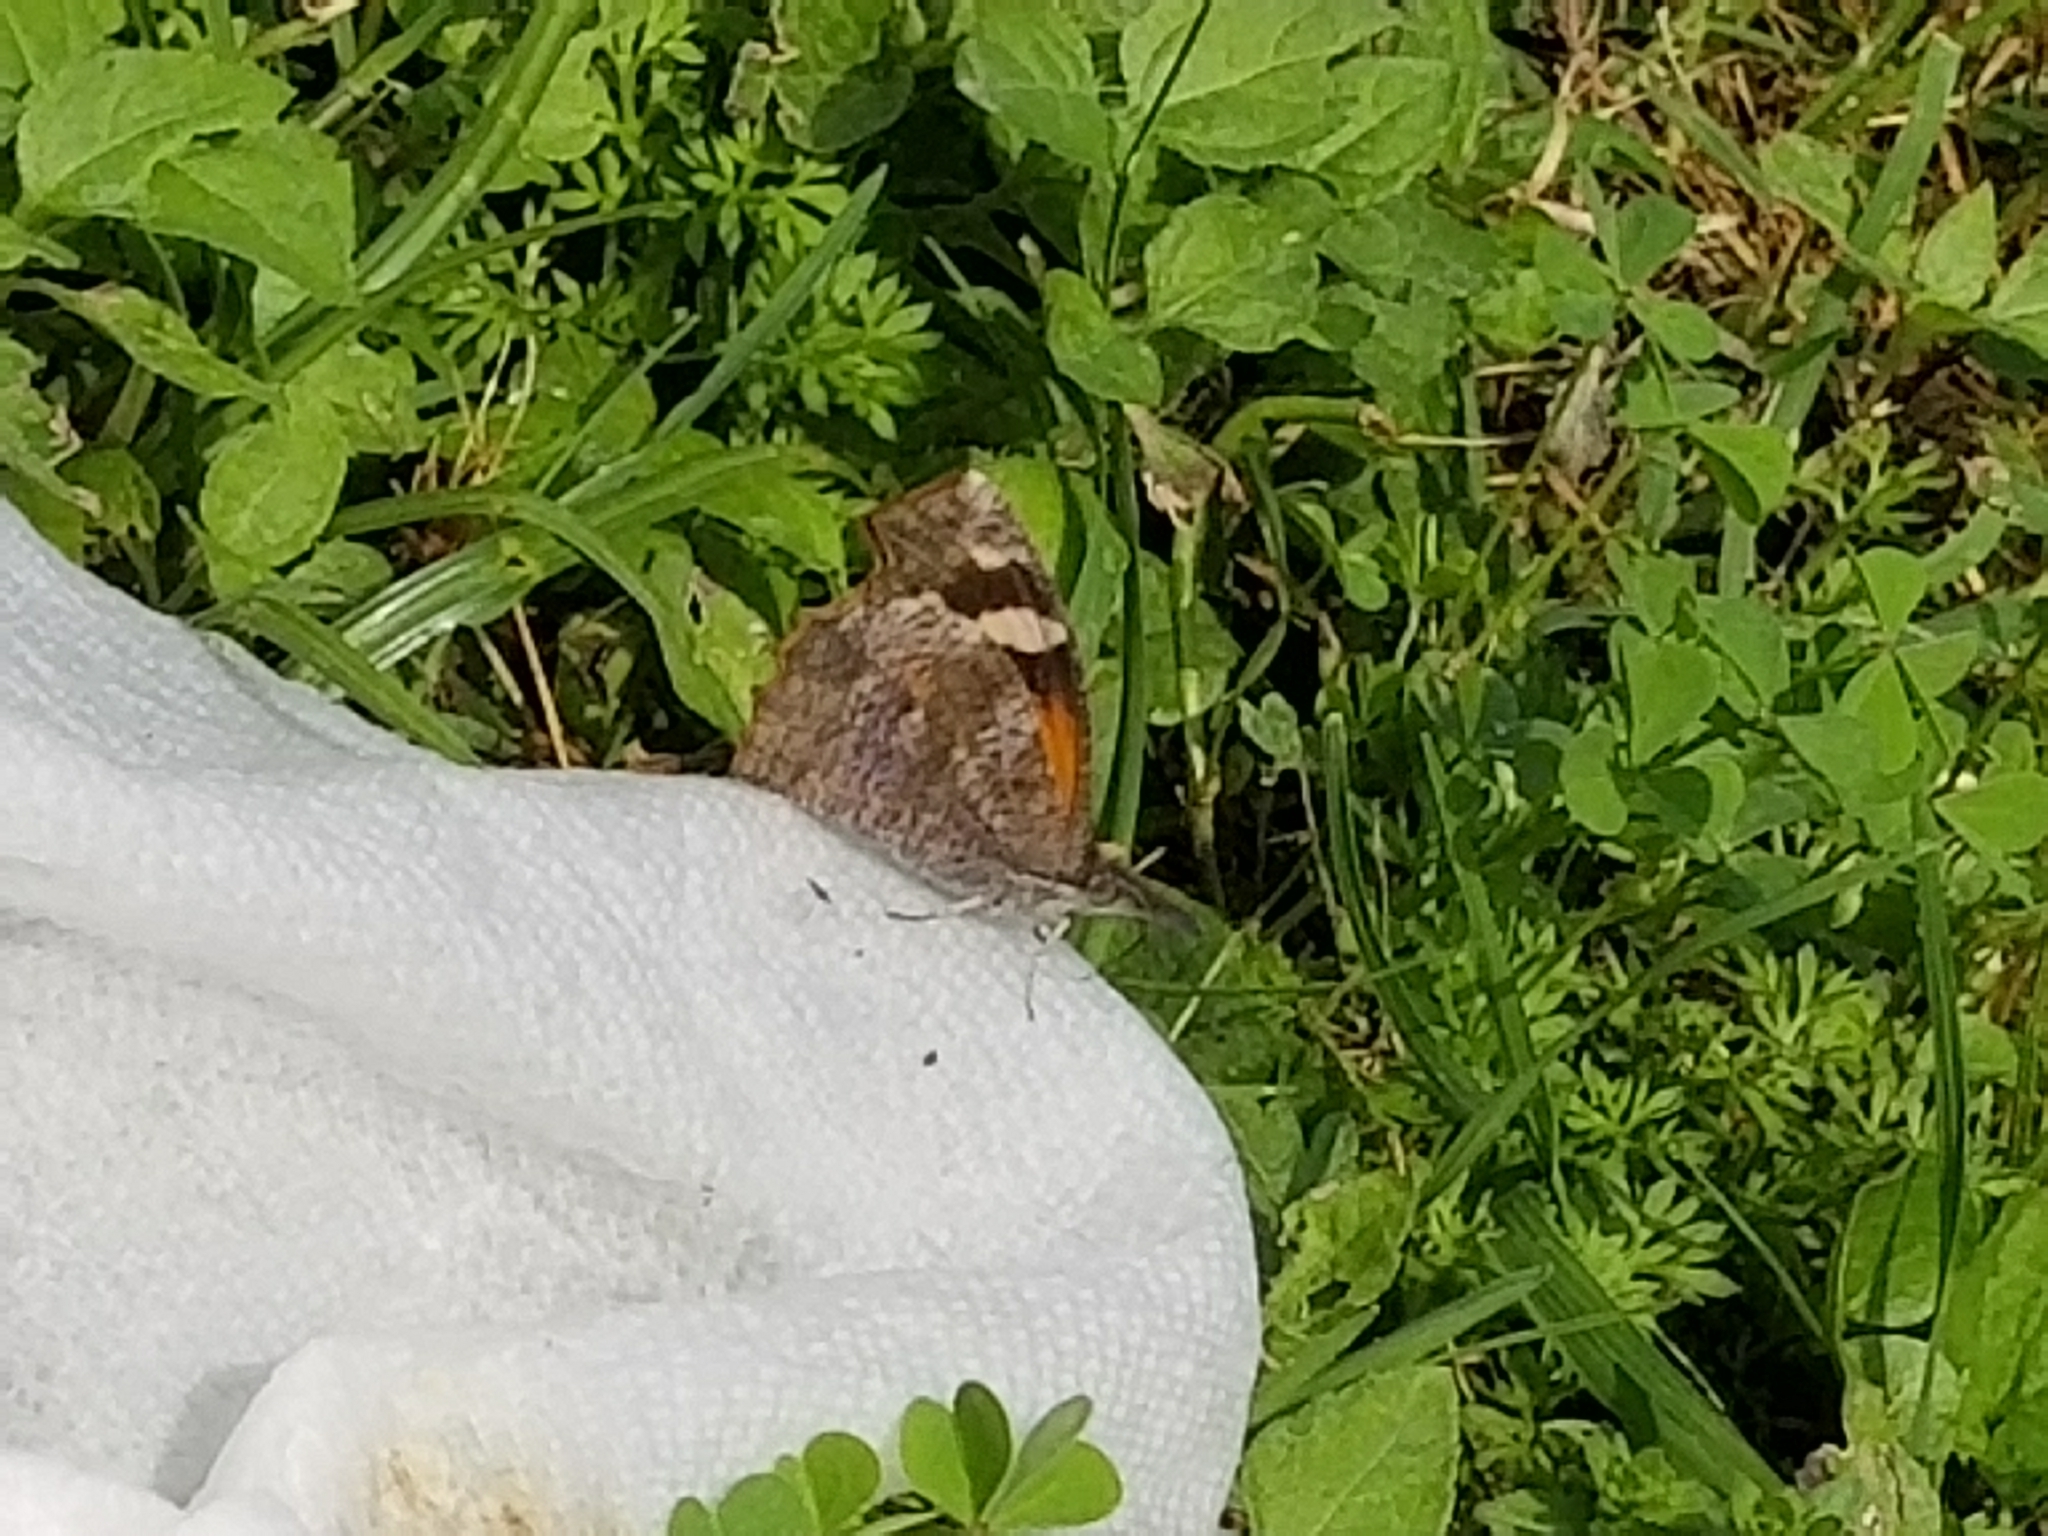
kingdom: Animalia
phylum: Arthropoda
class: Insecta
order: Lepidoptera
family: Nymphalidae
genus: Libytheana
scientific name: Libytheana carinenta
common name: American snout
